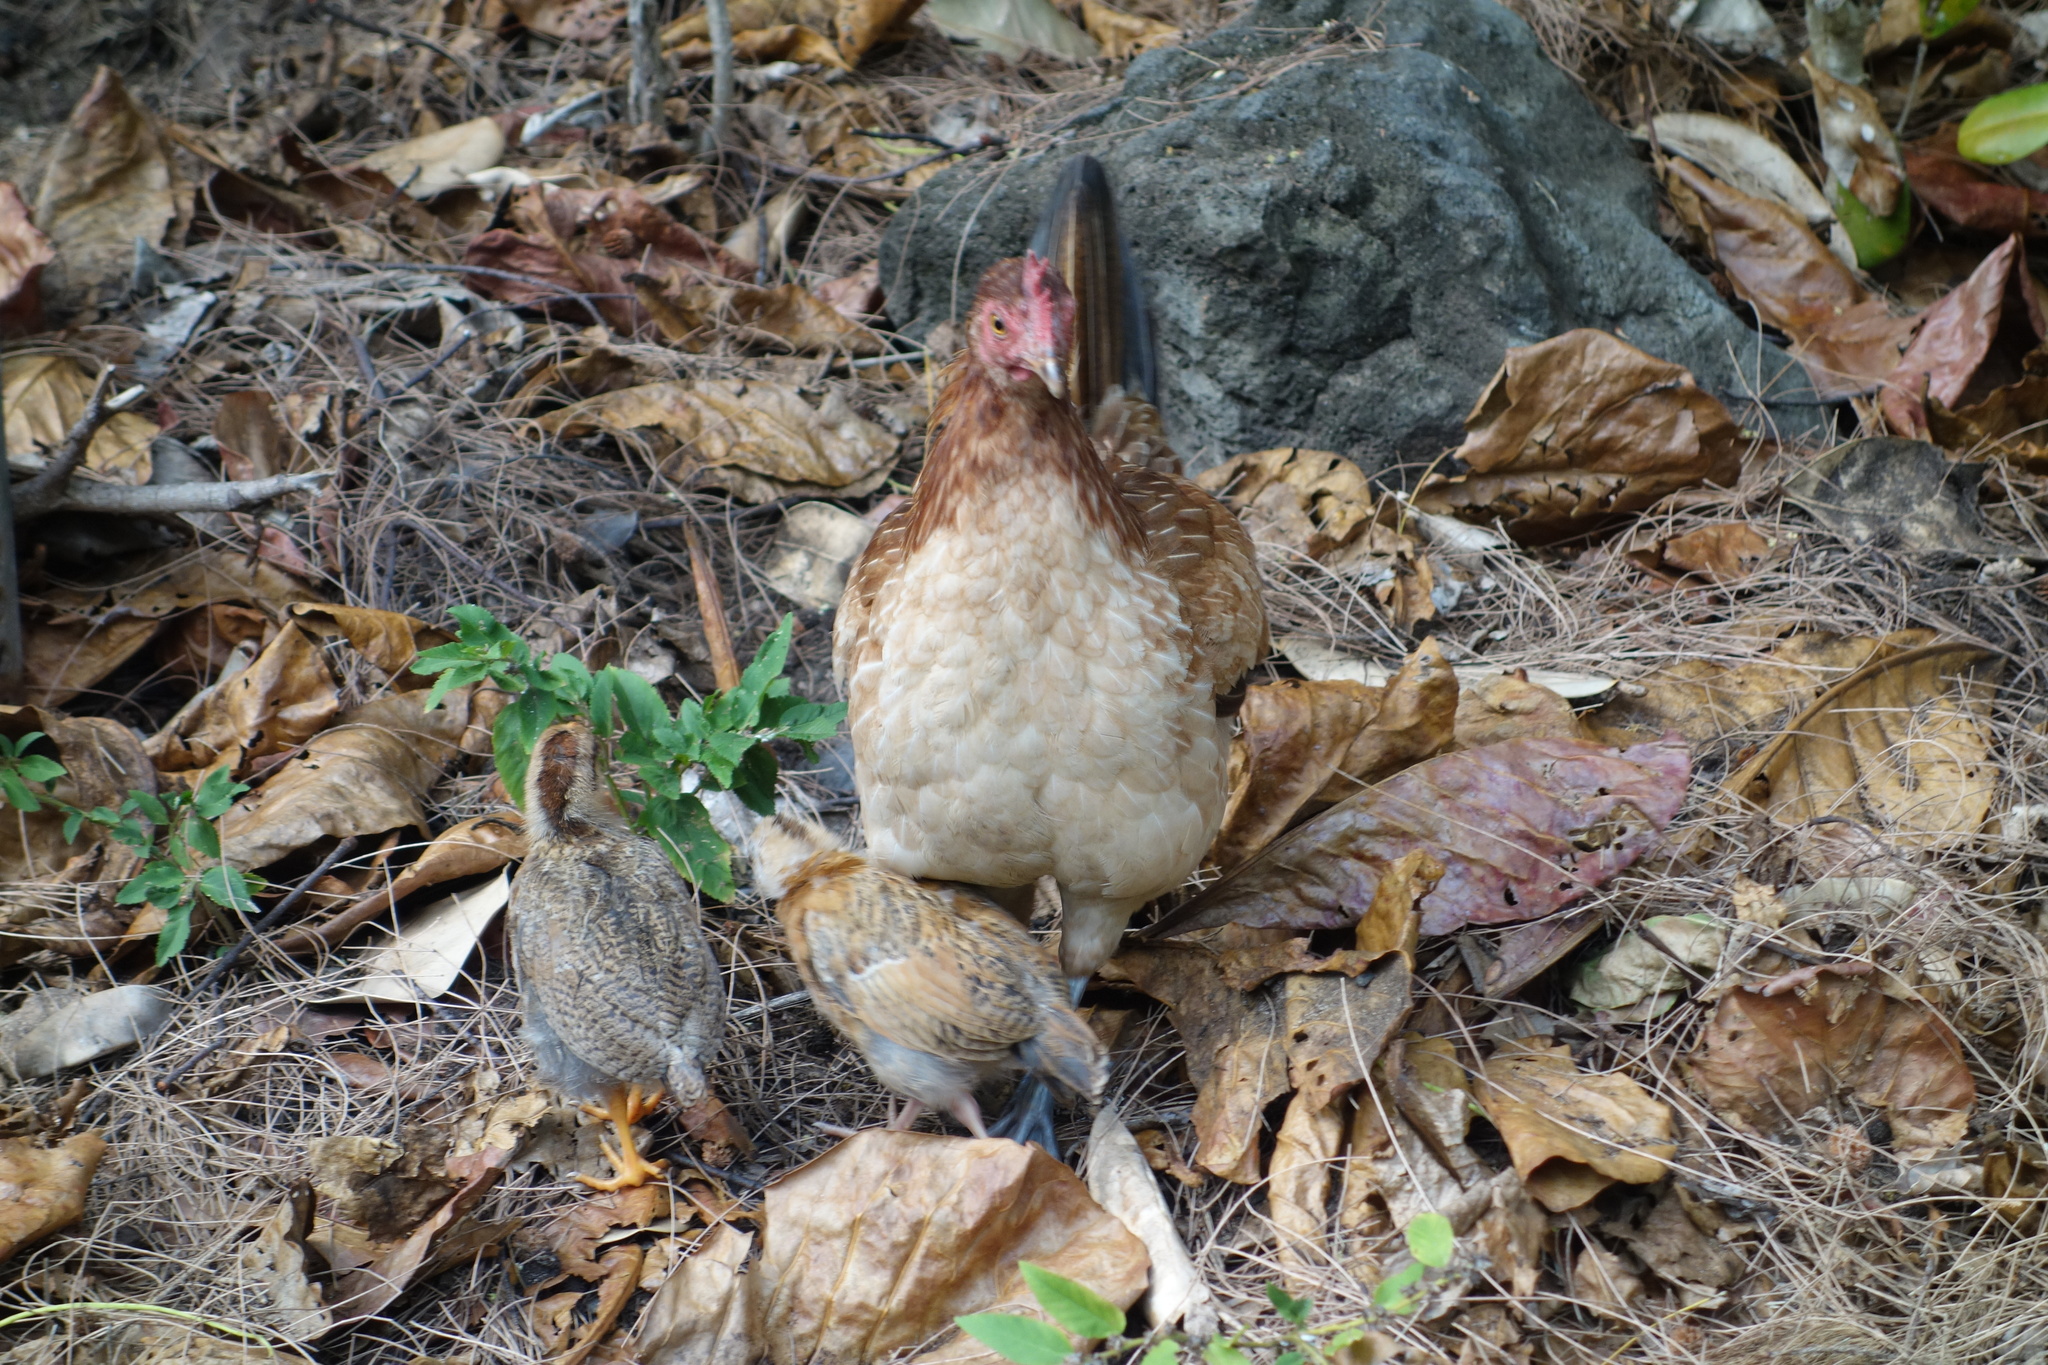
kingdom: Animalia
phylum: Chordata
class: Aves
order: Galliformes
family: Phasianidae
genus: Gallus
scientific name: Gallus gallus
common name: Red junglefowl
